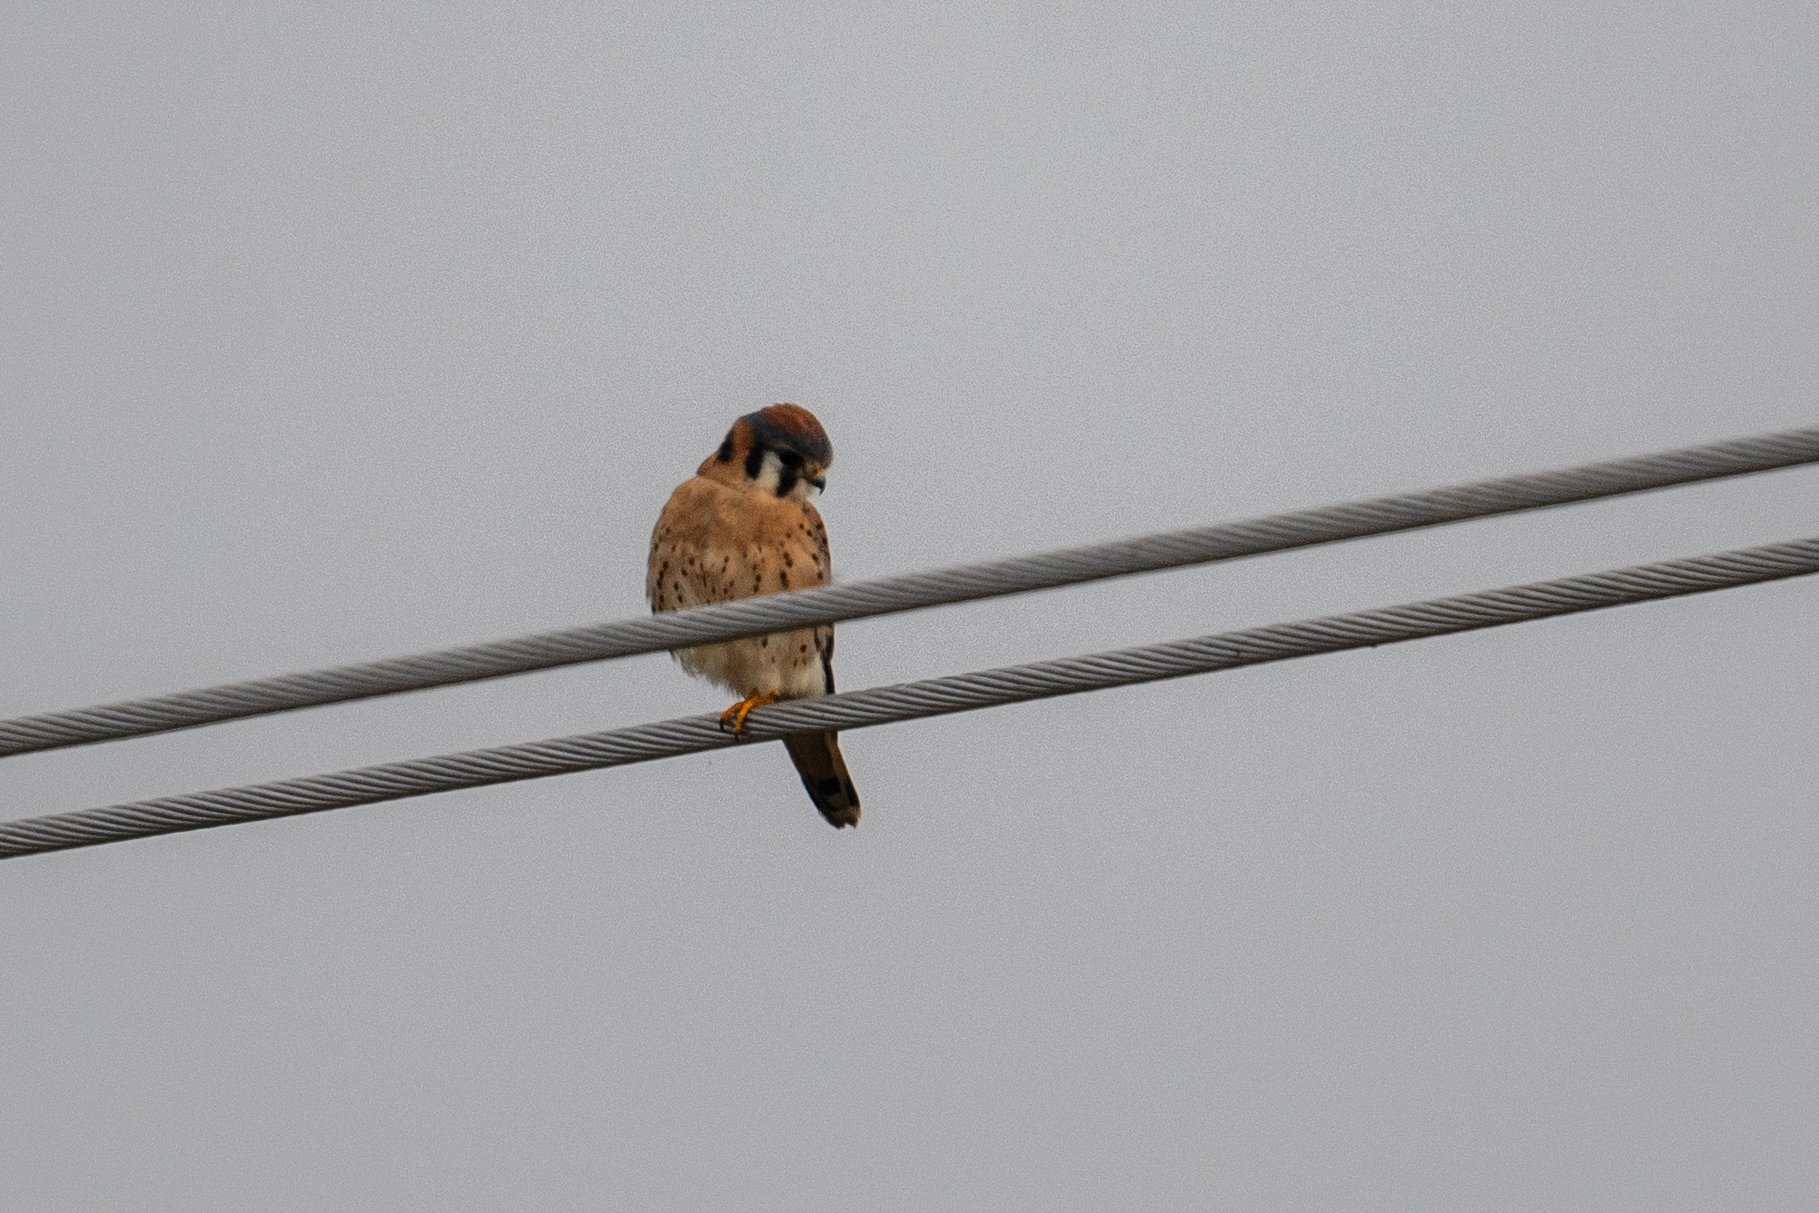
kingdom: Animalia
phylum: Chordata
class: Aves
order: Falconiformes
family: Falconidae
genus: Falco
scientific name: Falco sparverius
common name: American kestrel
